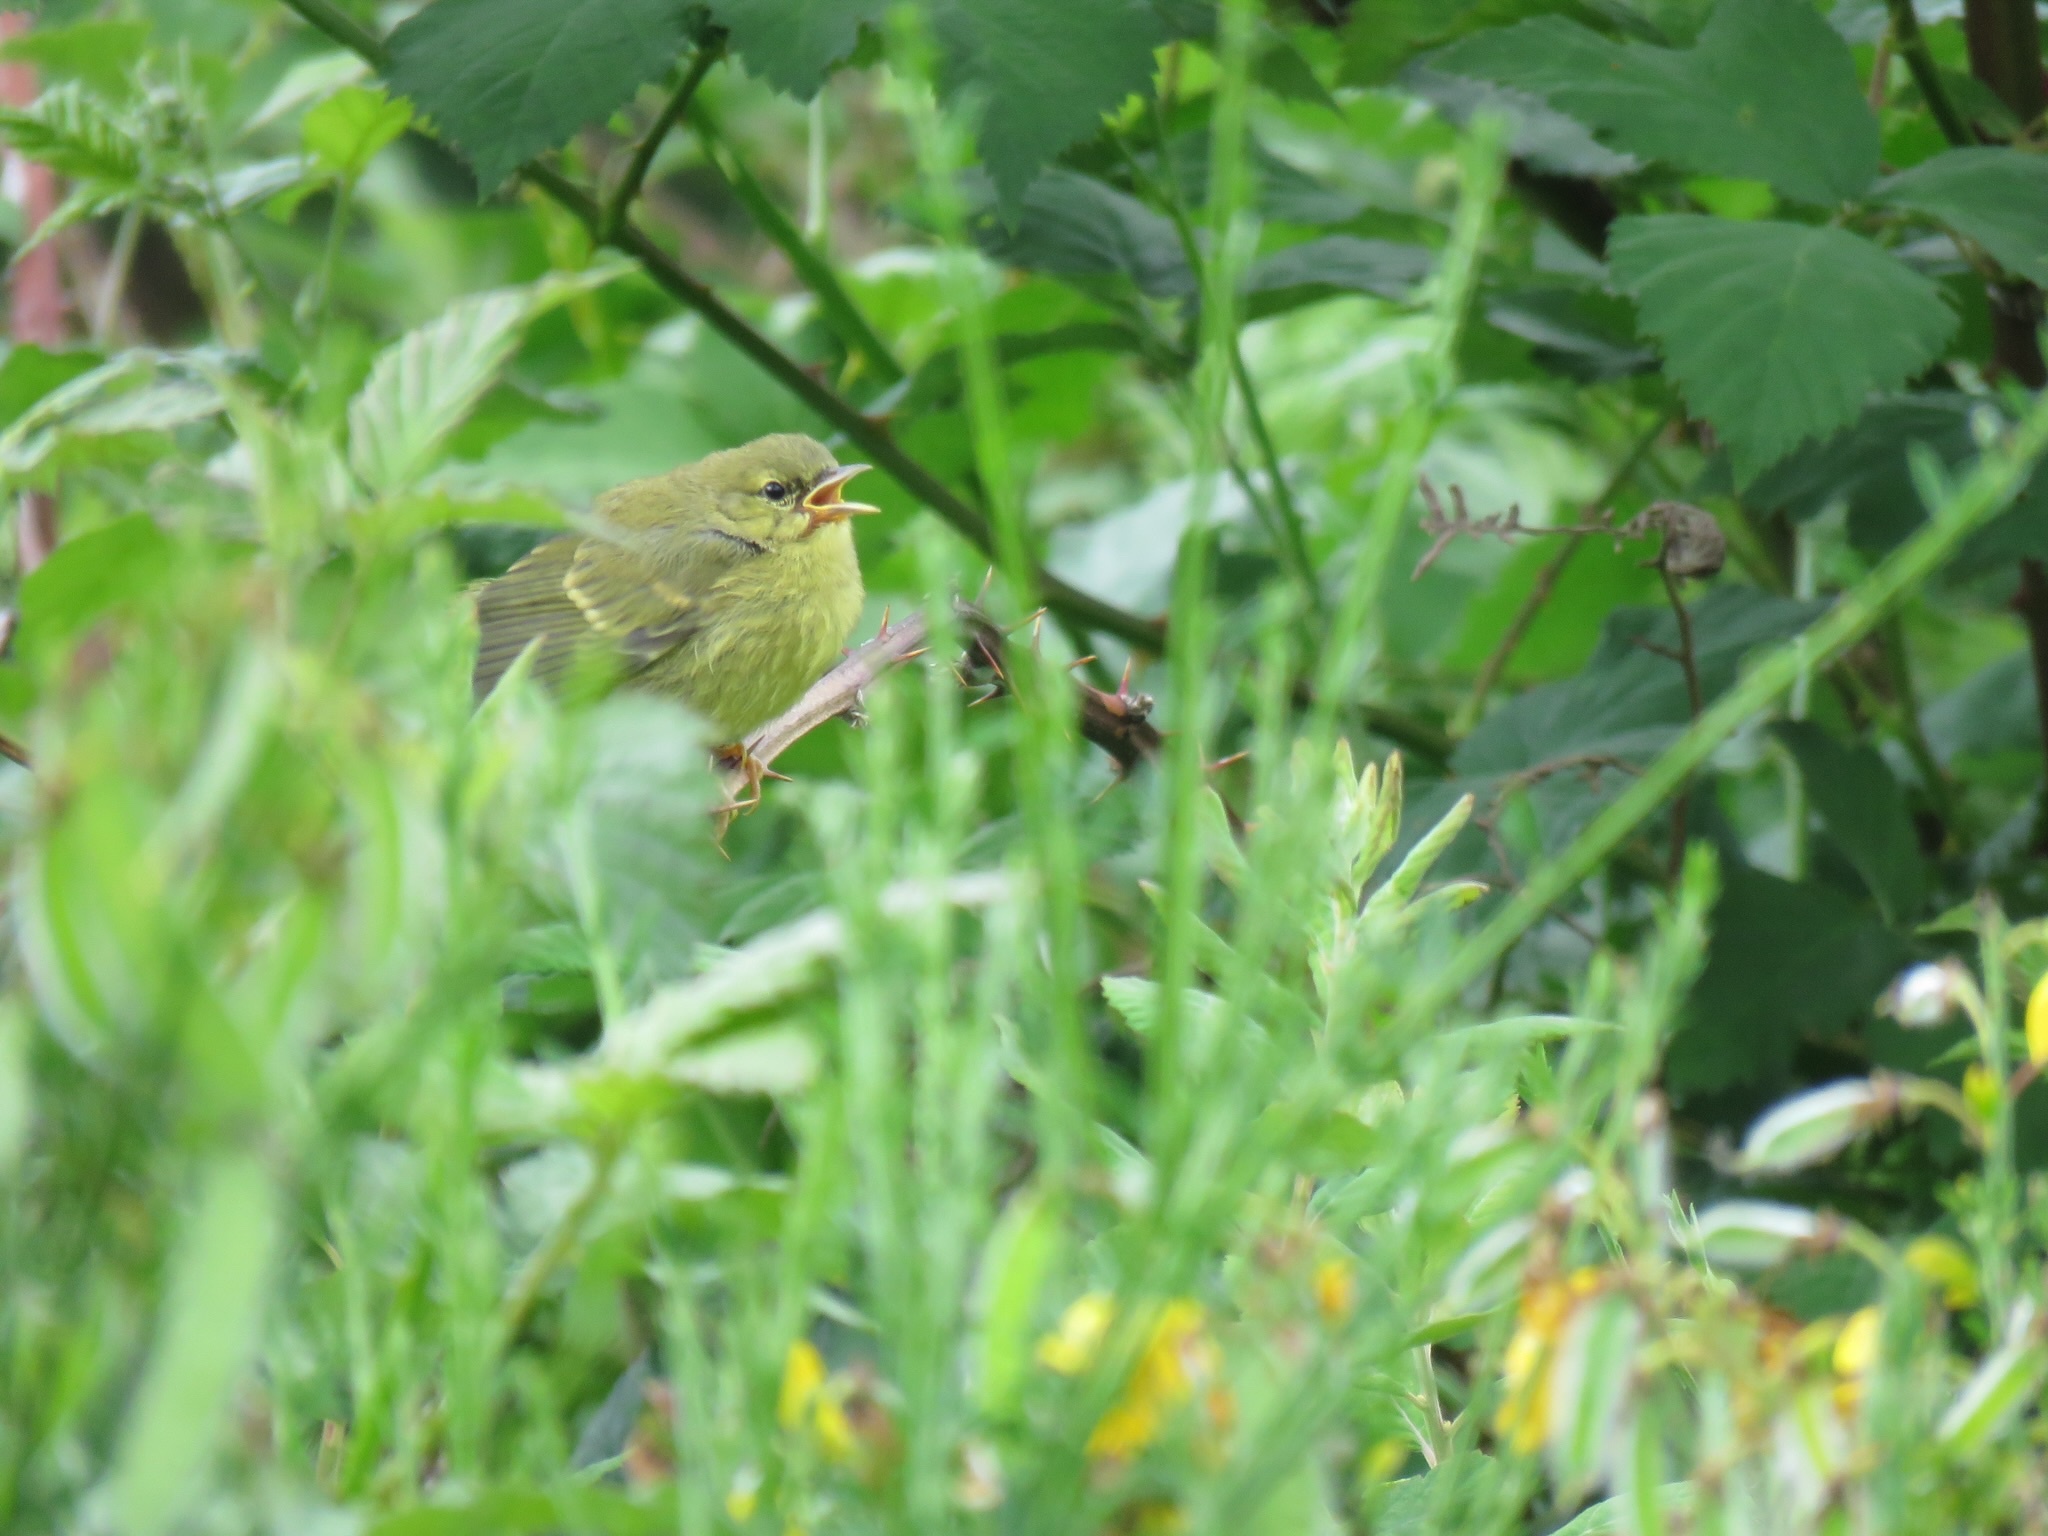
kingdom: Animalia
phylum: Chordata
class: Aves
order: Passeriformes
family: Parulidae
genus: Leiothlypis
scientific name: Leiothlypis celata
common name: Orange-crowned warbler
